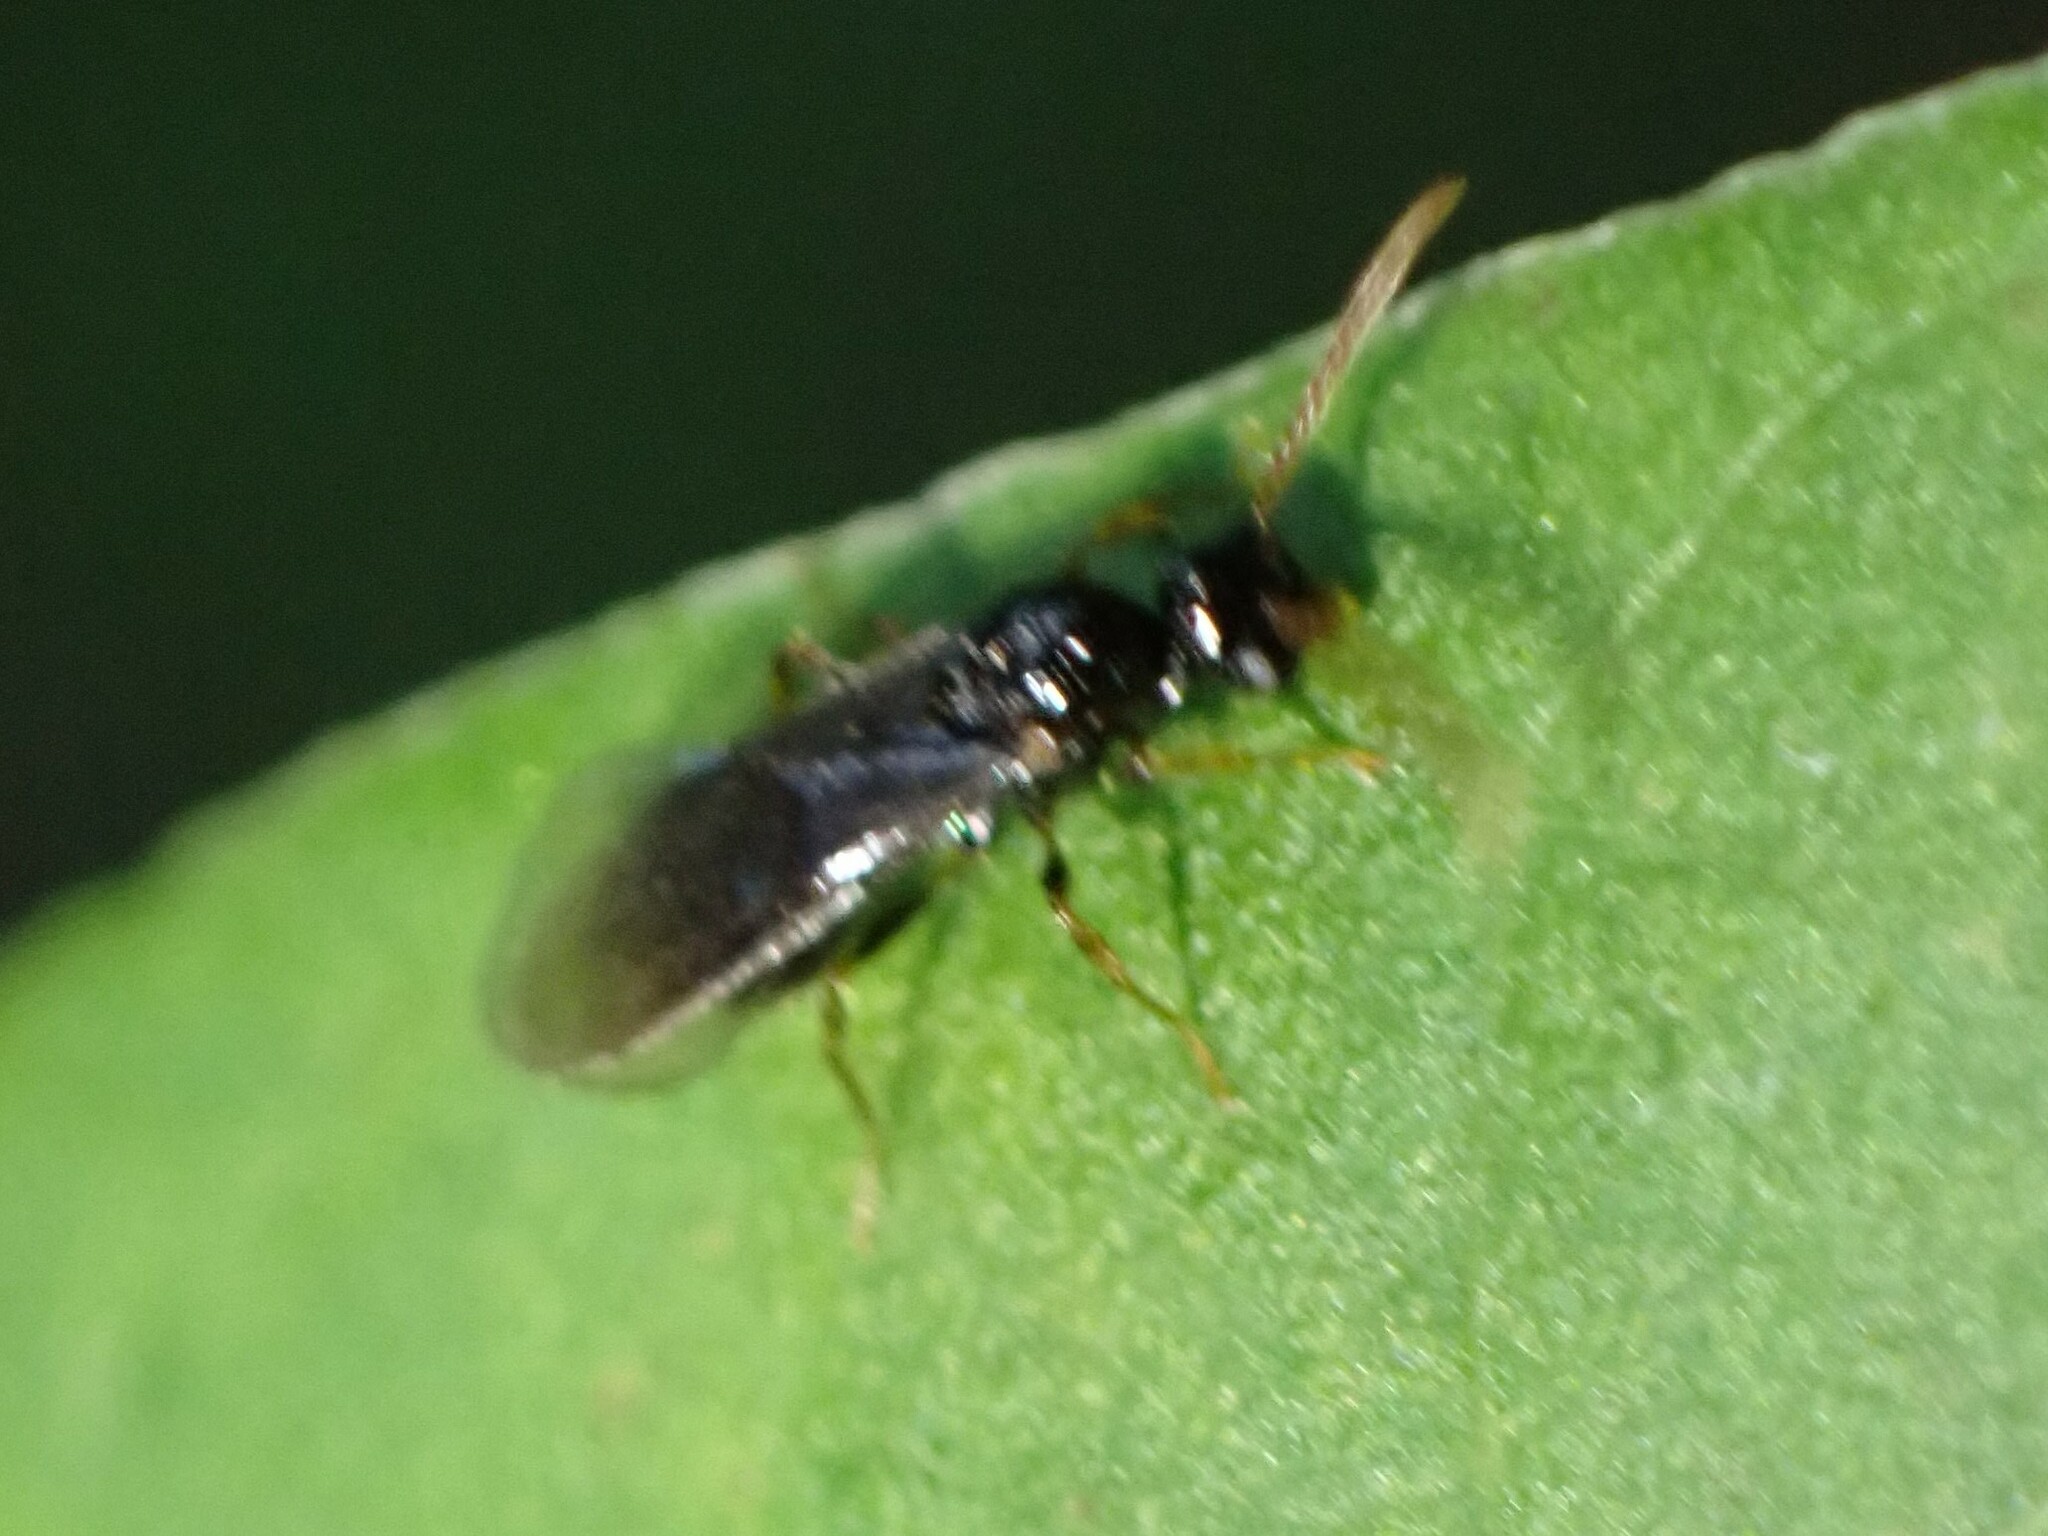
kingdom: Animalia
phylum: Arthropoda
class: Insecta
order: Hymenoptera
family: Formicidae
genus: Myrmecina
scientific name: Myrmecina americana
